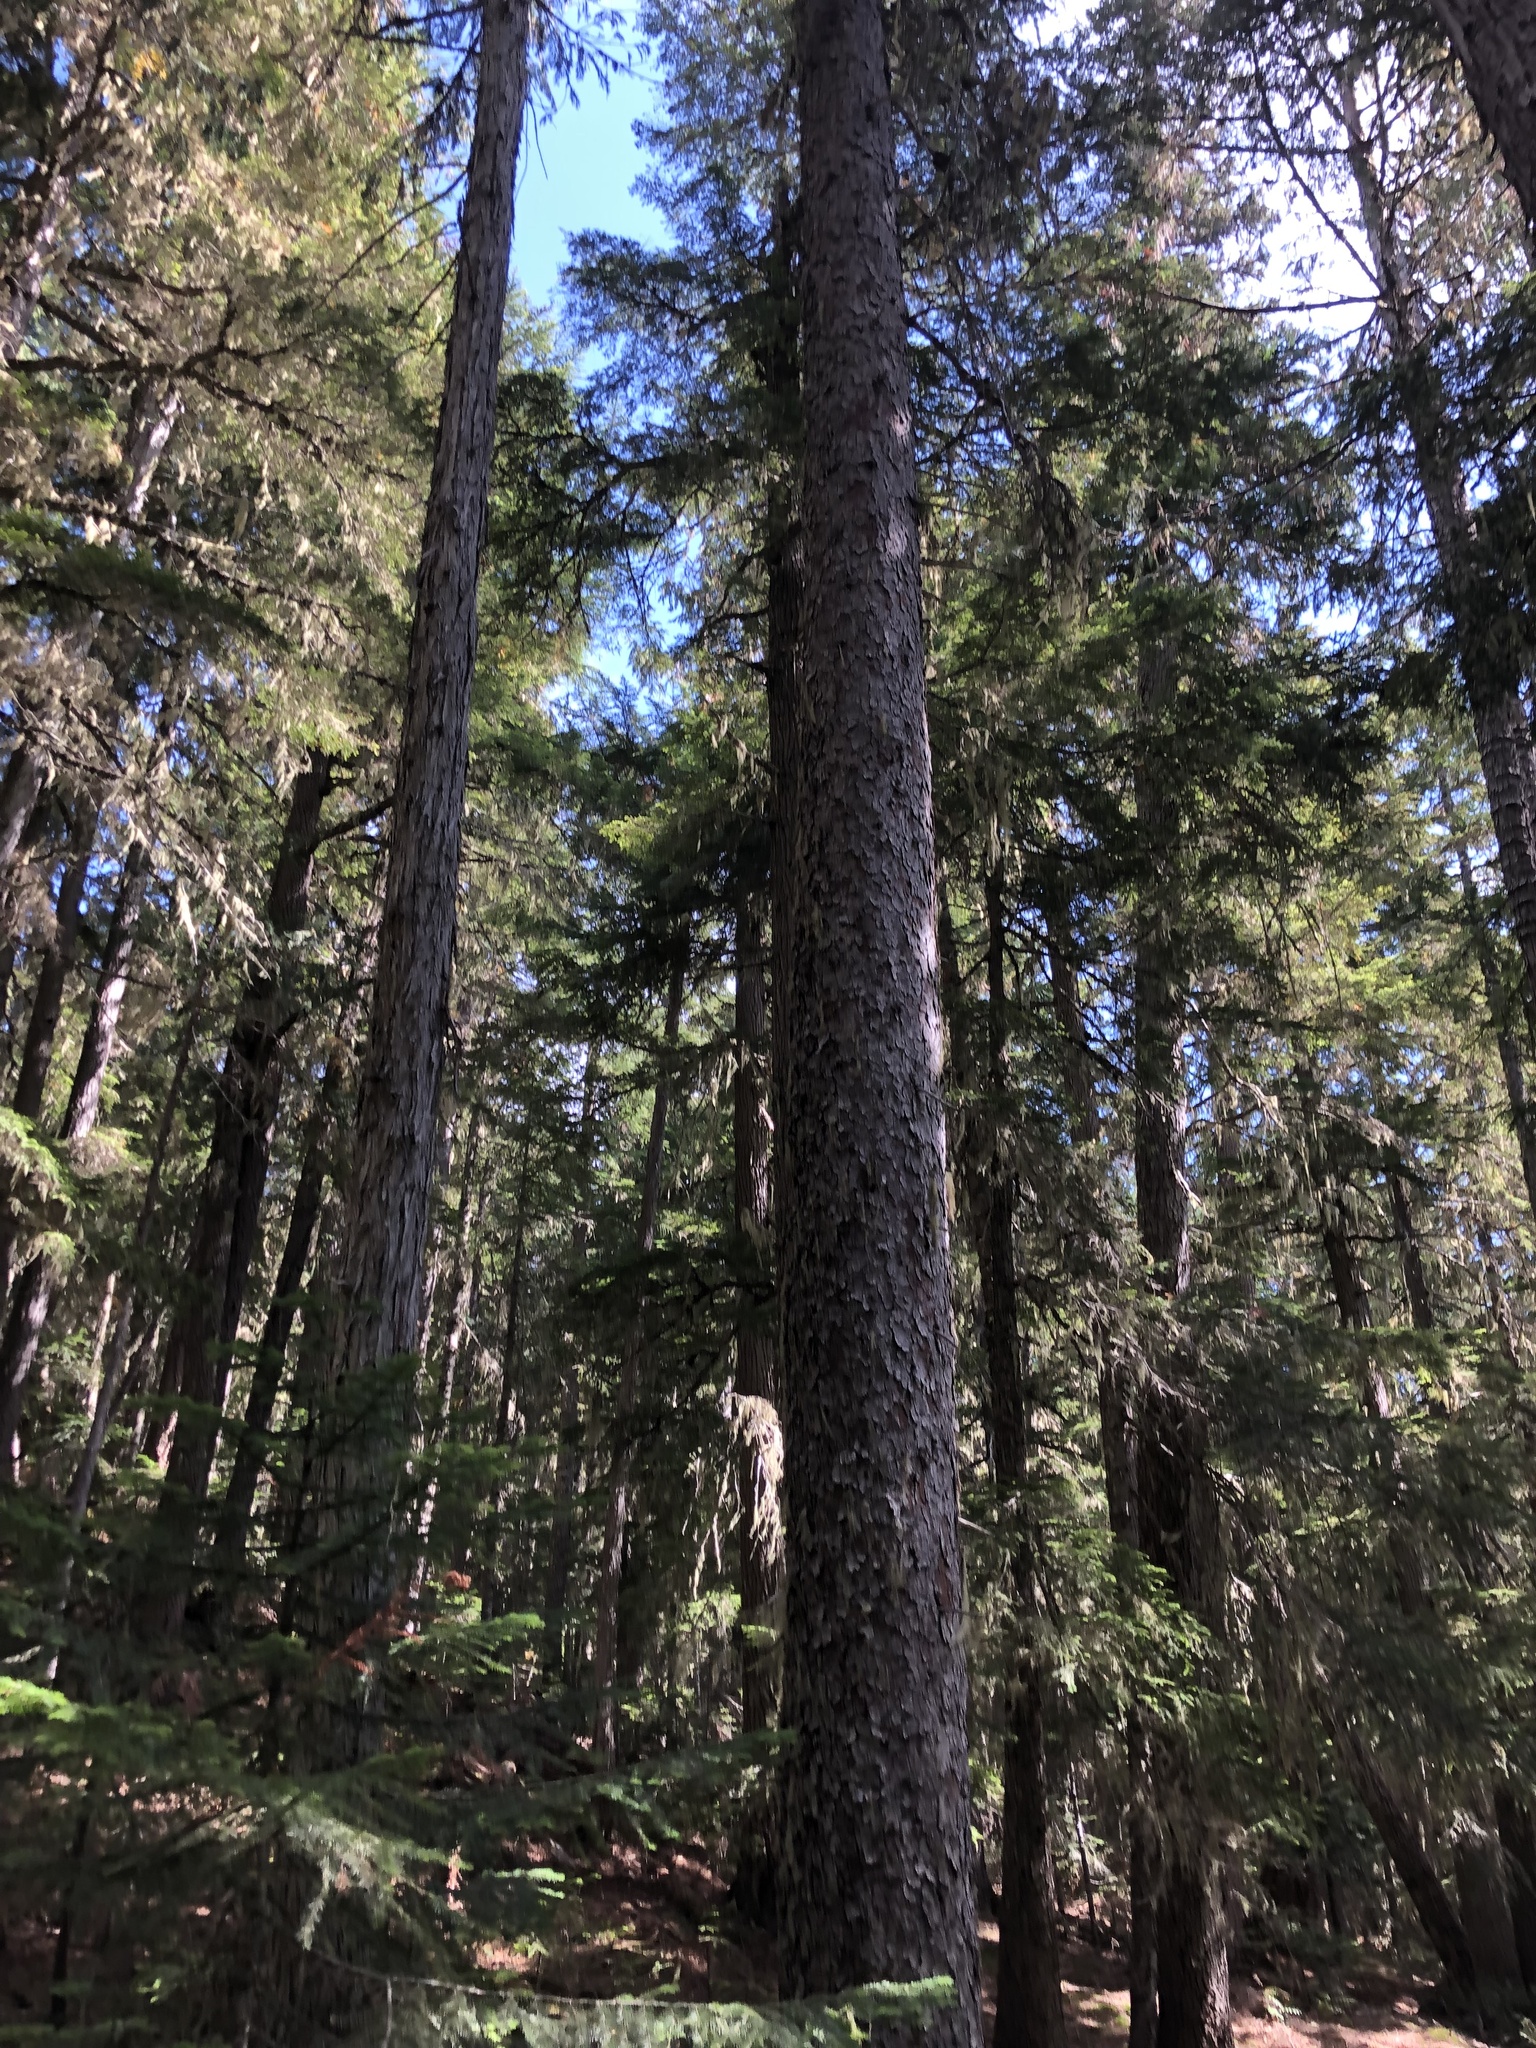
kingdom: Plantae
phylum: Tracheophyta
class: Pinopsida
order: Pinales
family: Pinaceae
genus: Picea
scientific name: Picea engelmannii
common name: Engelmann spruce
